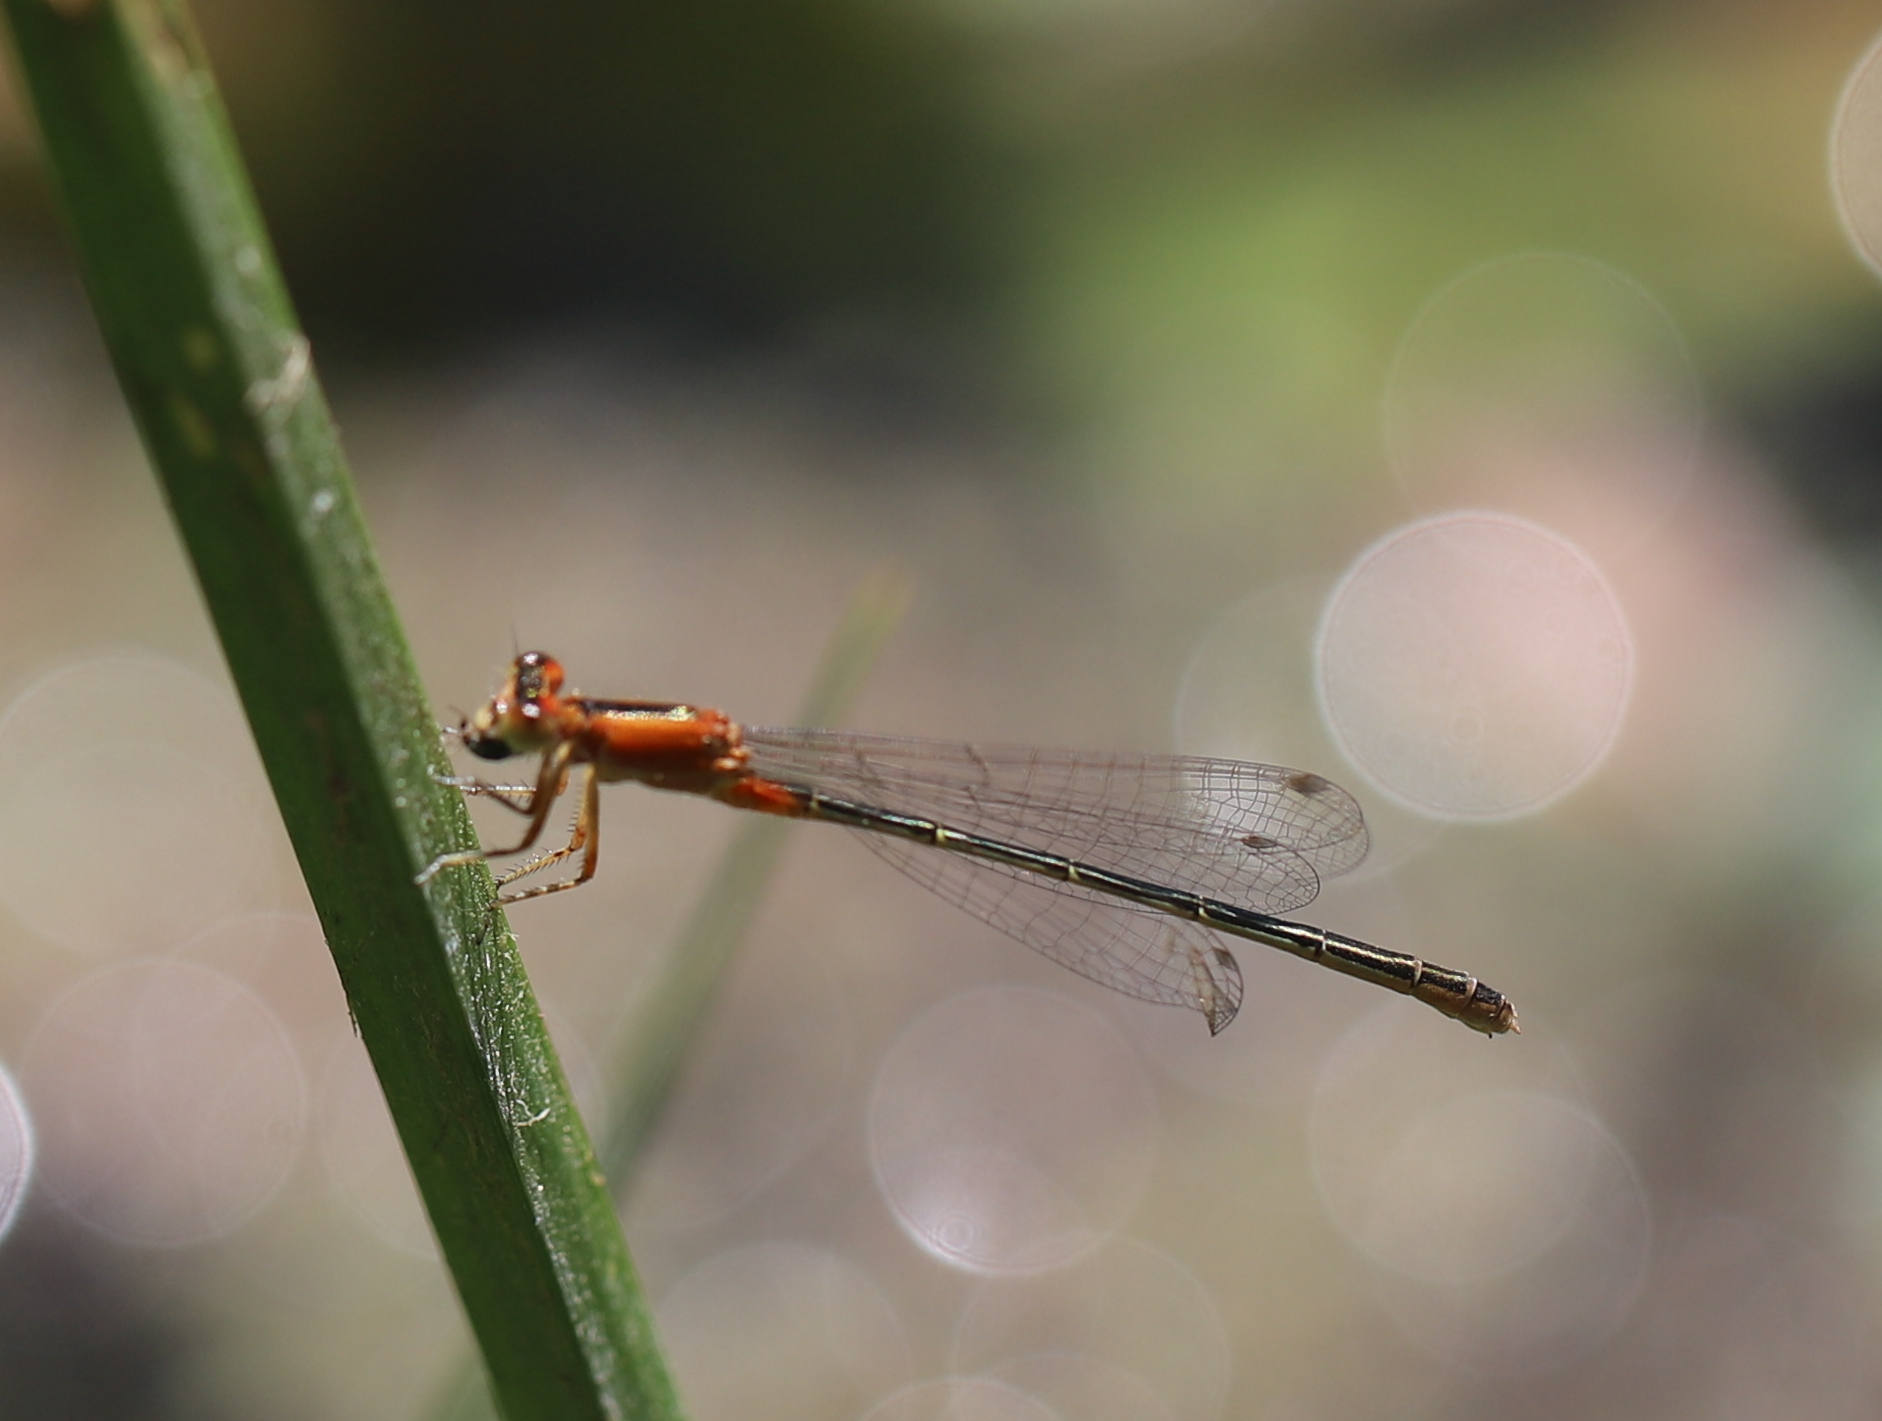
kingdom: Animalia
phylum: Arthropoda
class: Insecta
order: Odonata
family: Coenagrionidae
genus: Ischnura
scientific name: Ischnura ramburii
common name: Rambur's forktail
